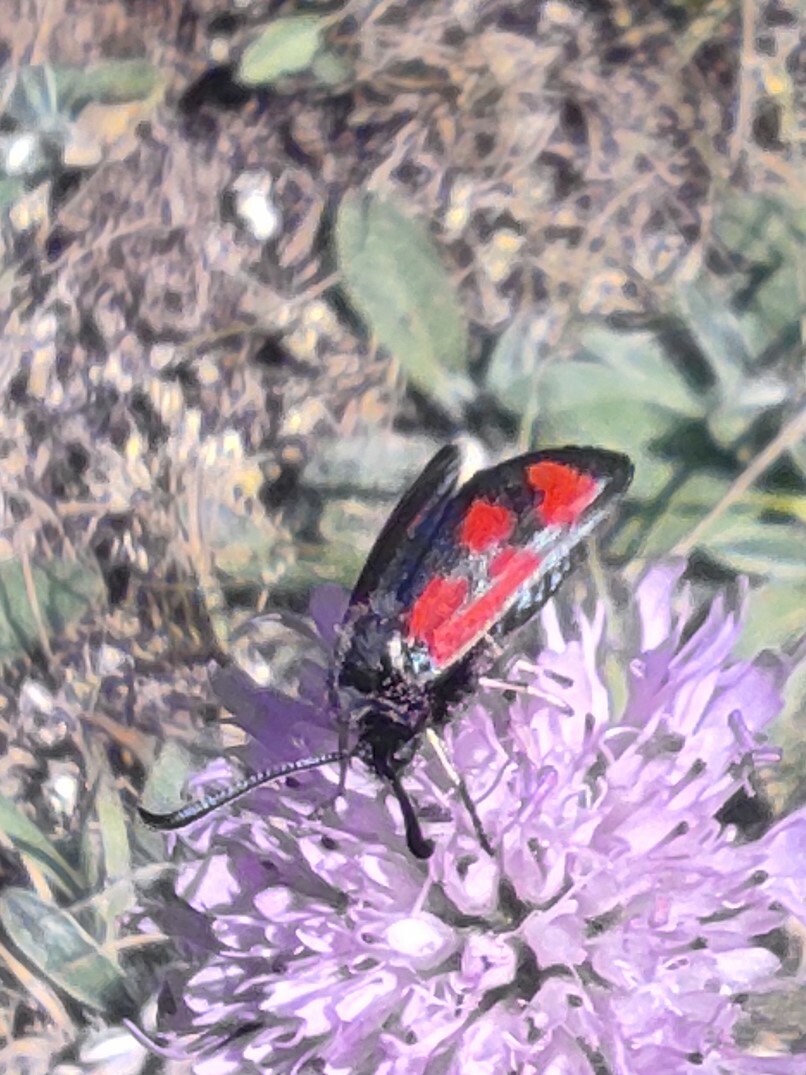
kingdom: Animalia
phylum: Arthropoda
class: Insecta
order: Lepidoptera
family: Zygaenidae
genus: Zygaena
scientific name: Zygaena loti
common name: Slender scotch burnet
